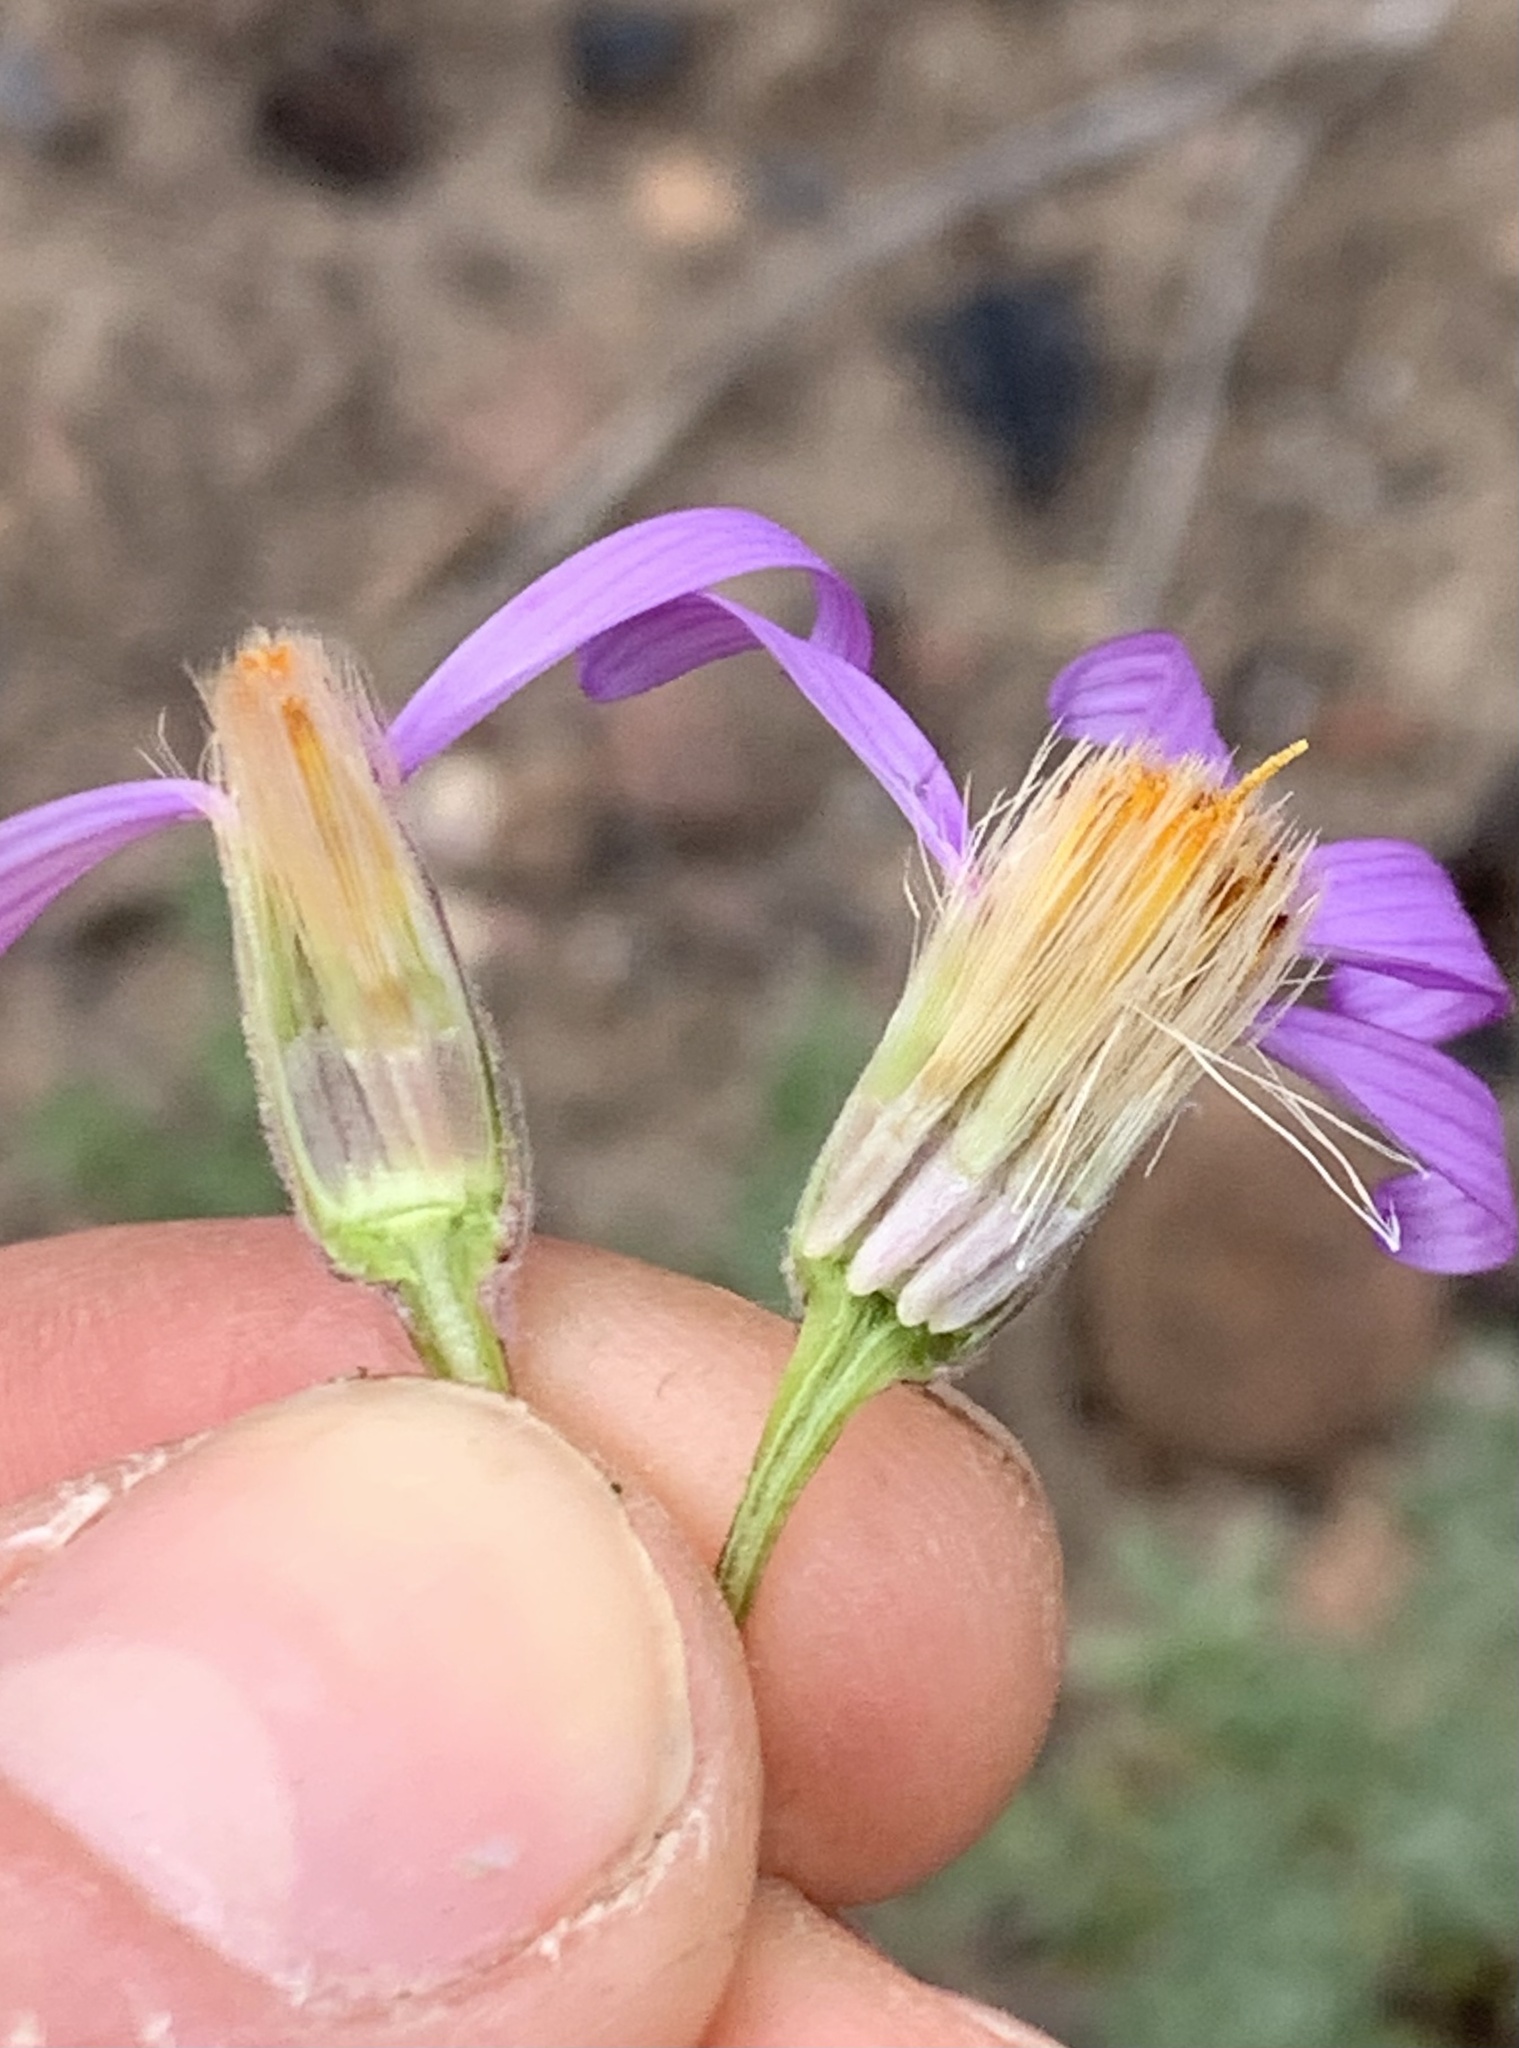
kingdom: Plantae
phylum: Tracheophyta
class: Magnoliopsida
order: Asterales
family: Asteraceae
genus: Ionactis
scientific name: Ionactis alpina
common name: Crag aster
